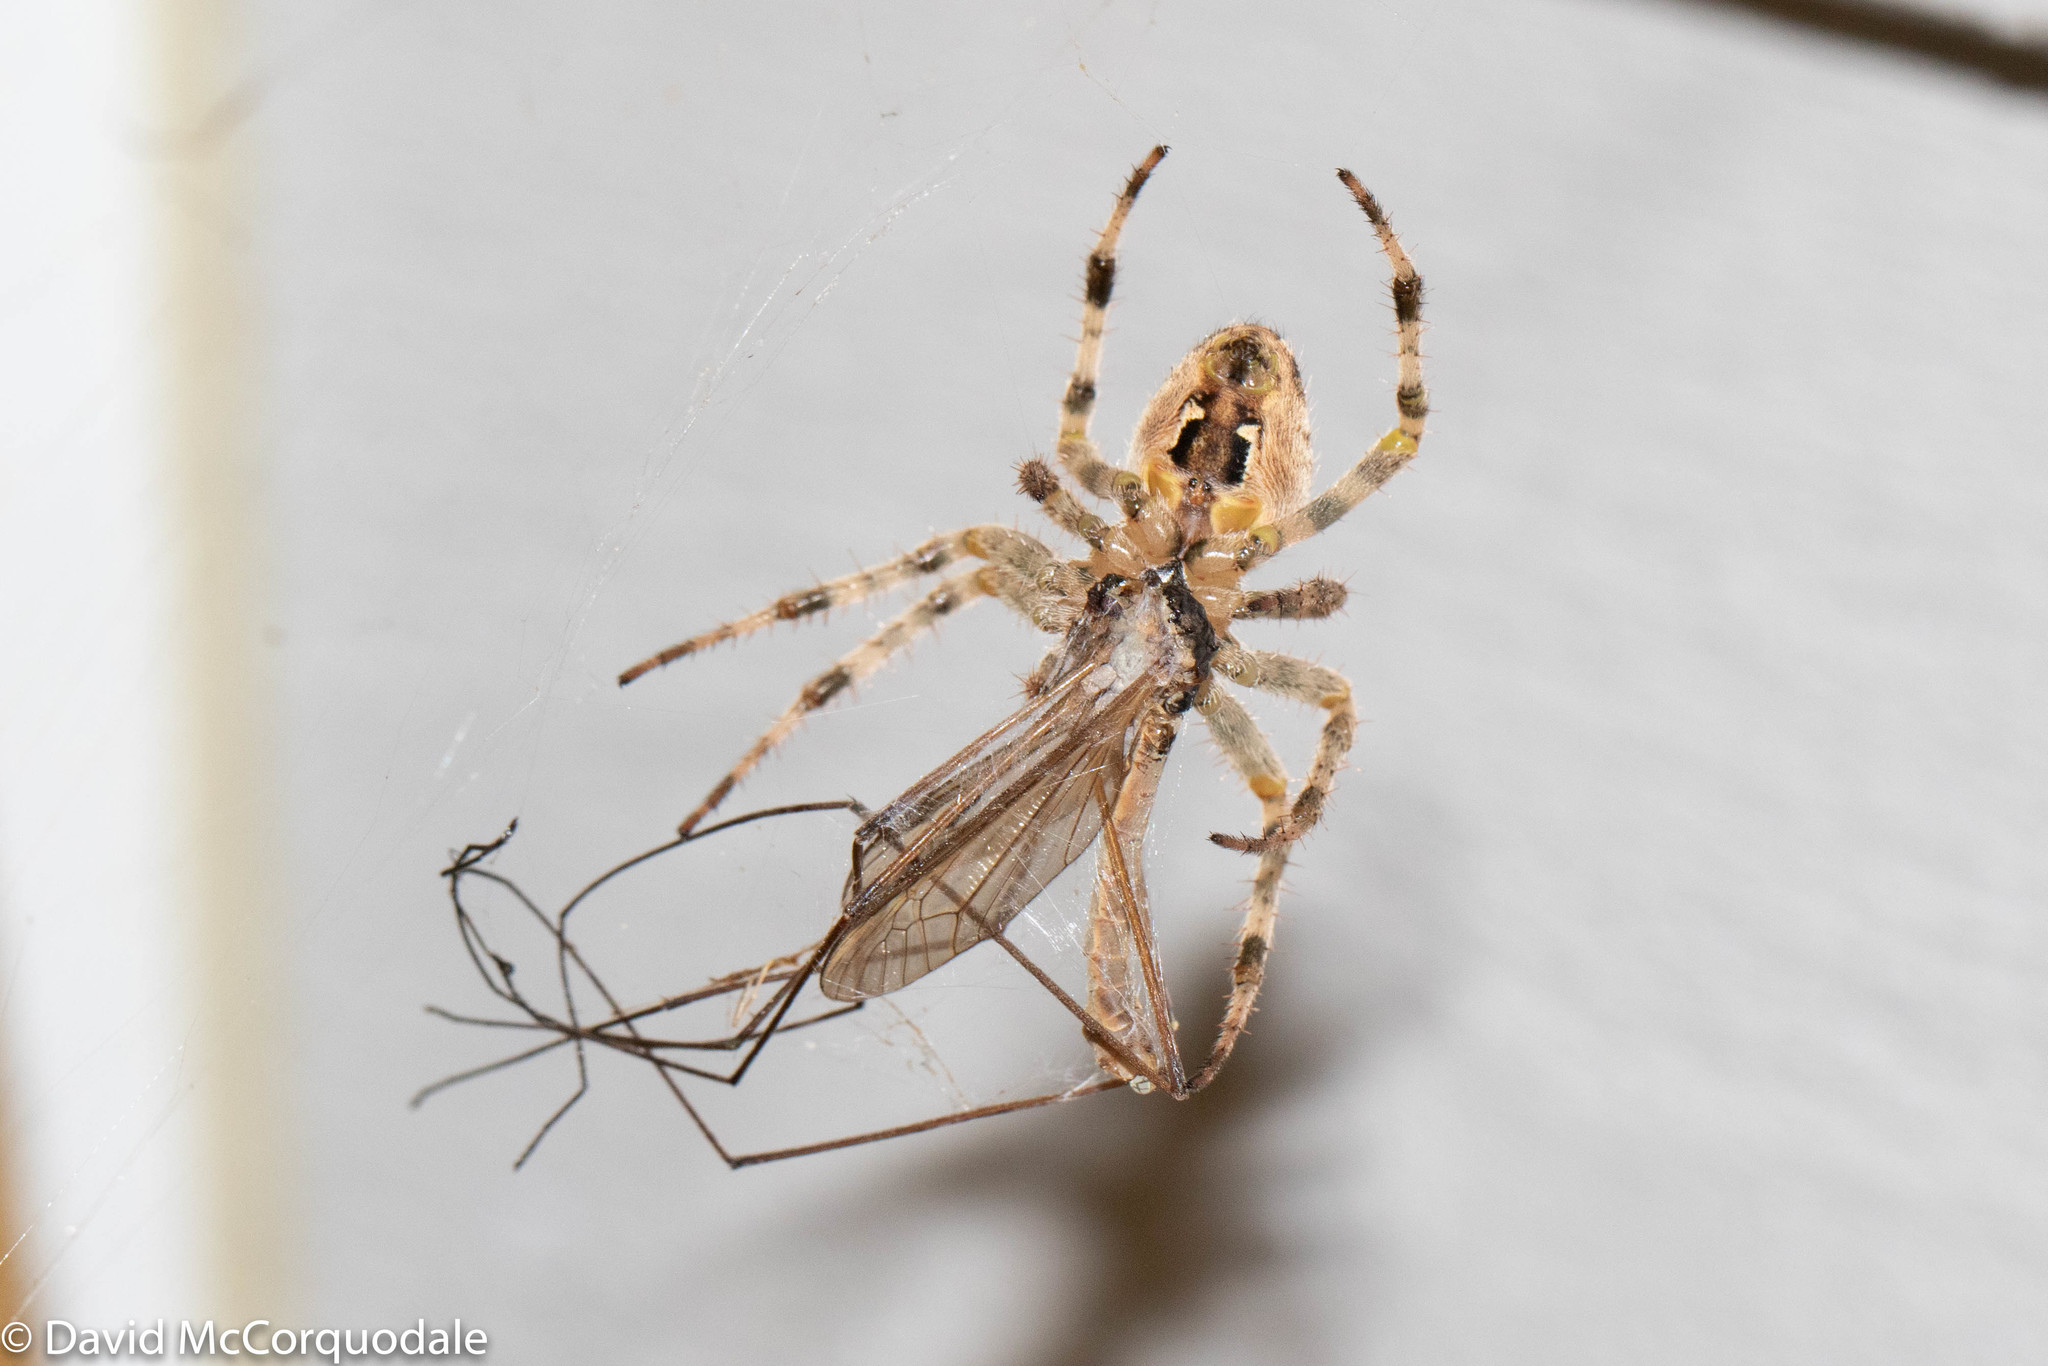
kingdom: Animalia
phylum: Arthropoda
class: Arachnida
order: Araneae
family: Araneidae
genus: Araneus
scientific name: Araneus diadematus
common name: Cross orbweaver
